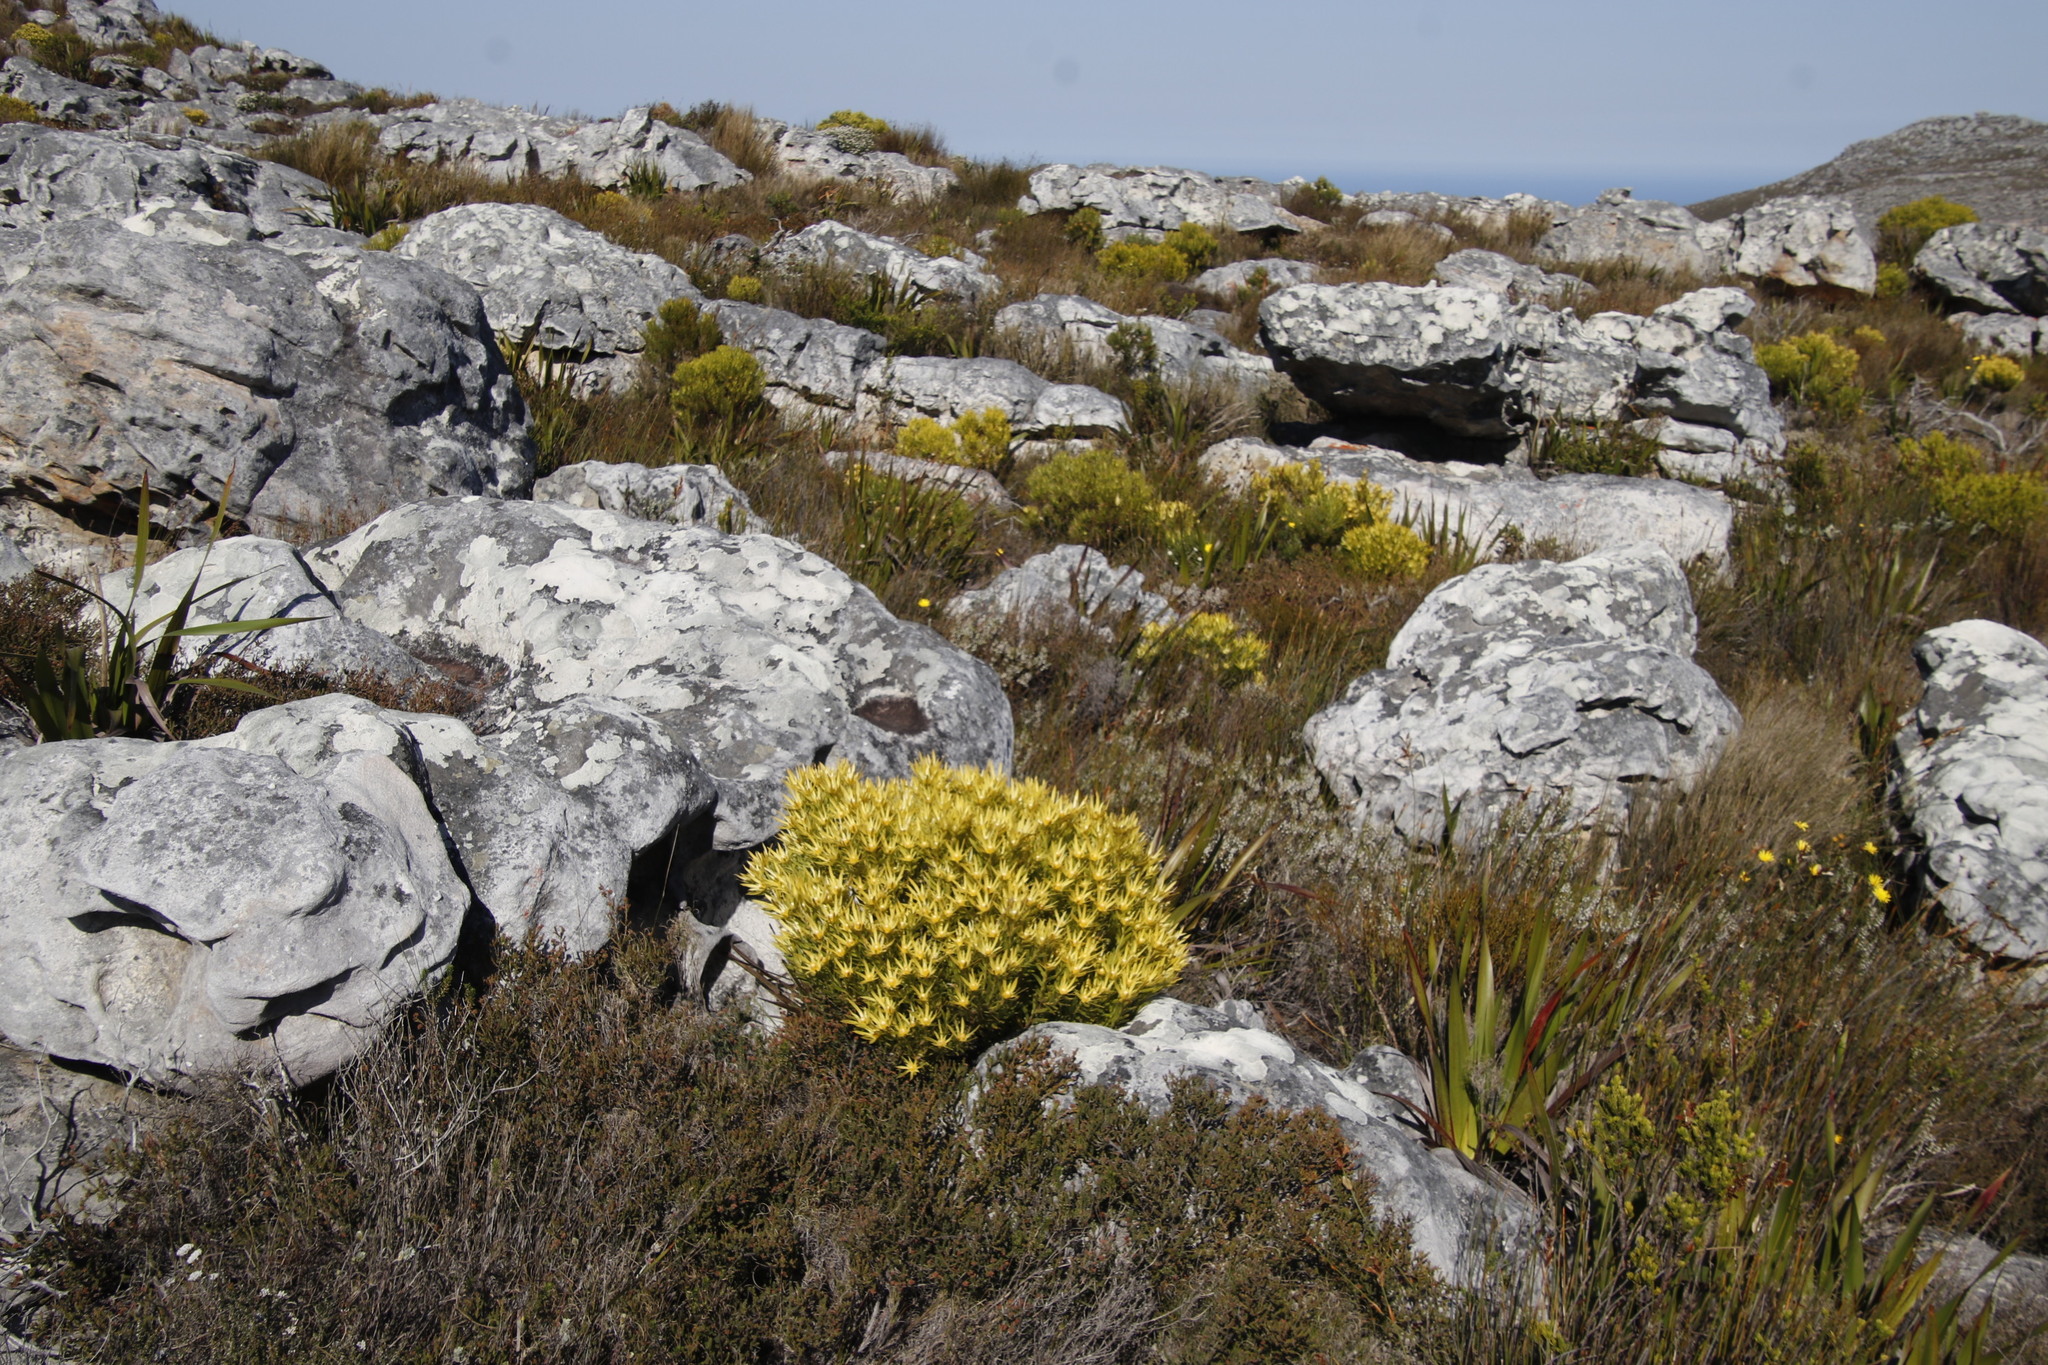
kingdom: Plantae
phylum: Tracheophyta
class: Magnoliopsida
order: Proteales
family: Proteaceae
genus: Leucadendron
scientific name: Leucadendron xanthoconus
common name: Sickle-leaf conebush
